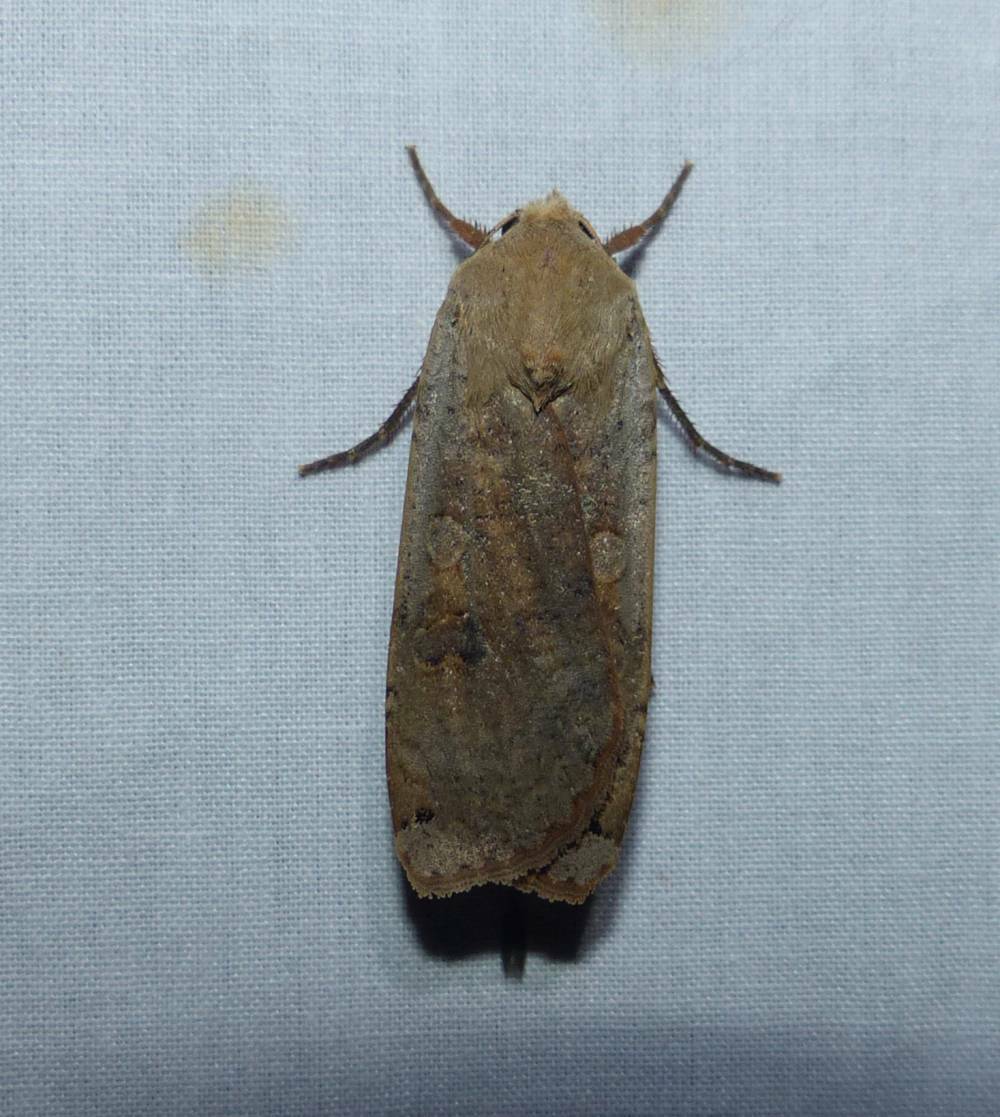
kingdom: Animalia
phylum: Arthropoda
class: Insecta
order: Lepidoptera
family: Noctuidae
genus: Noctua
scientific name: Noctua pronuba
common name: Large yellow underwing
